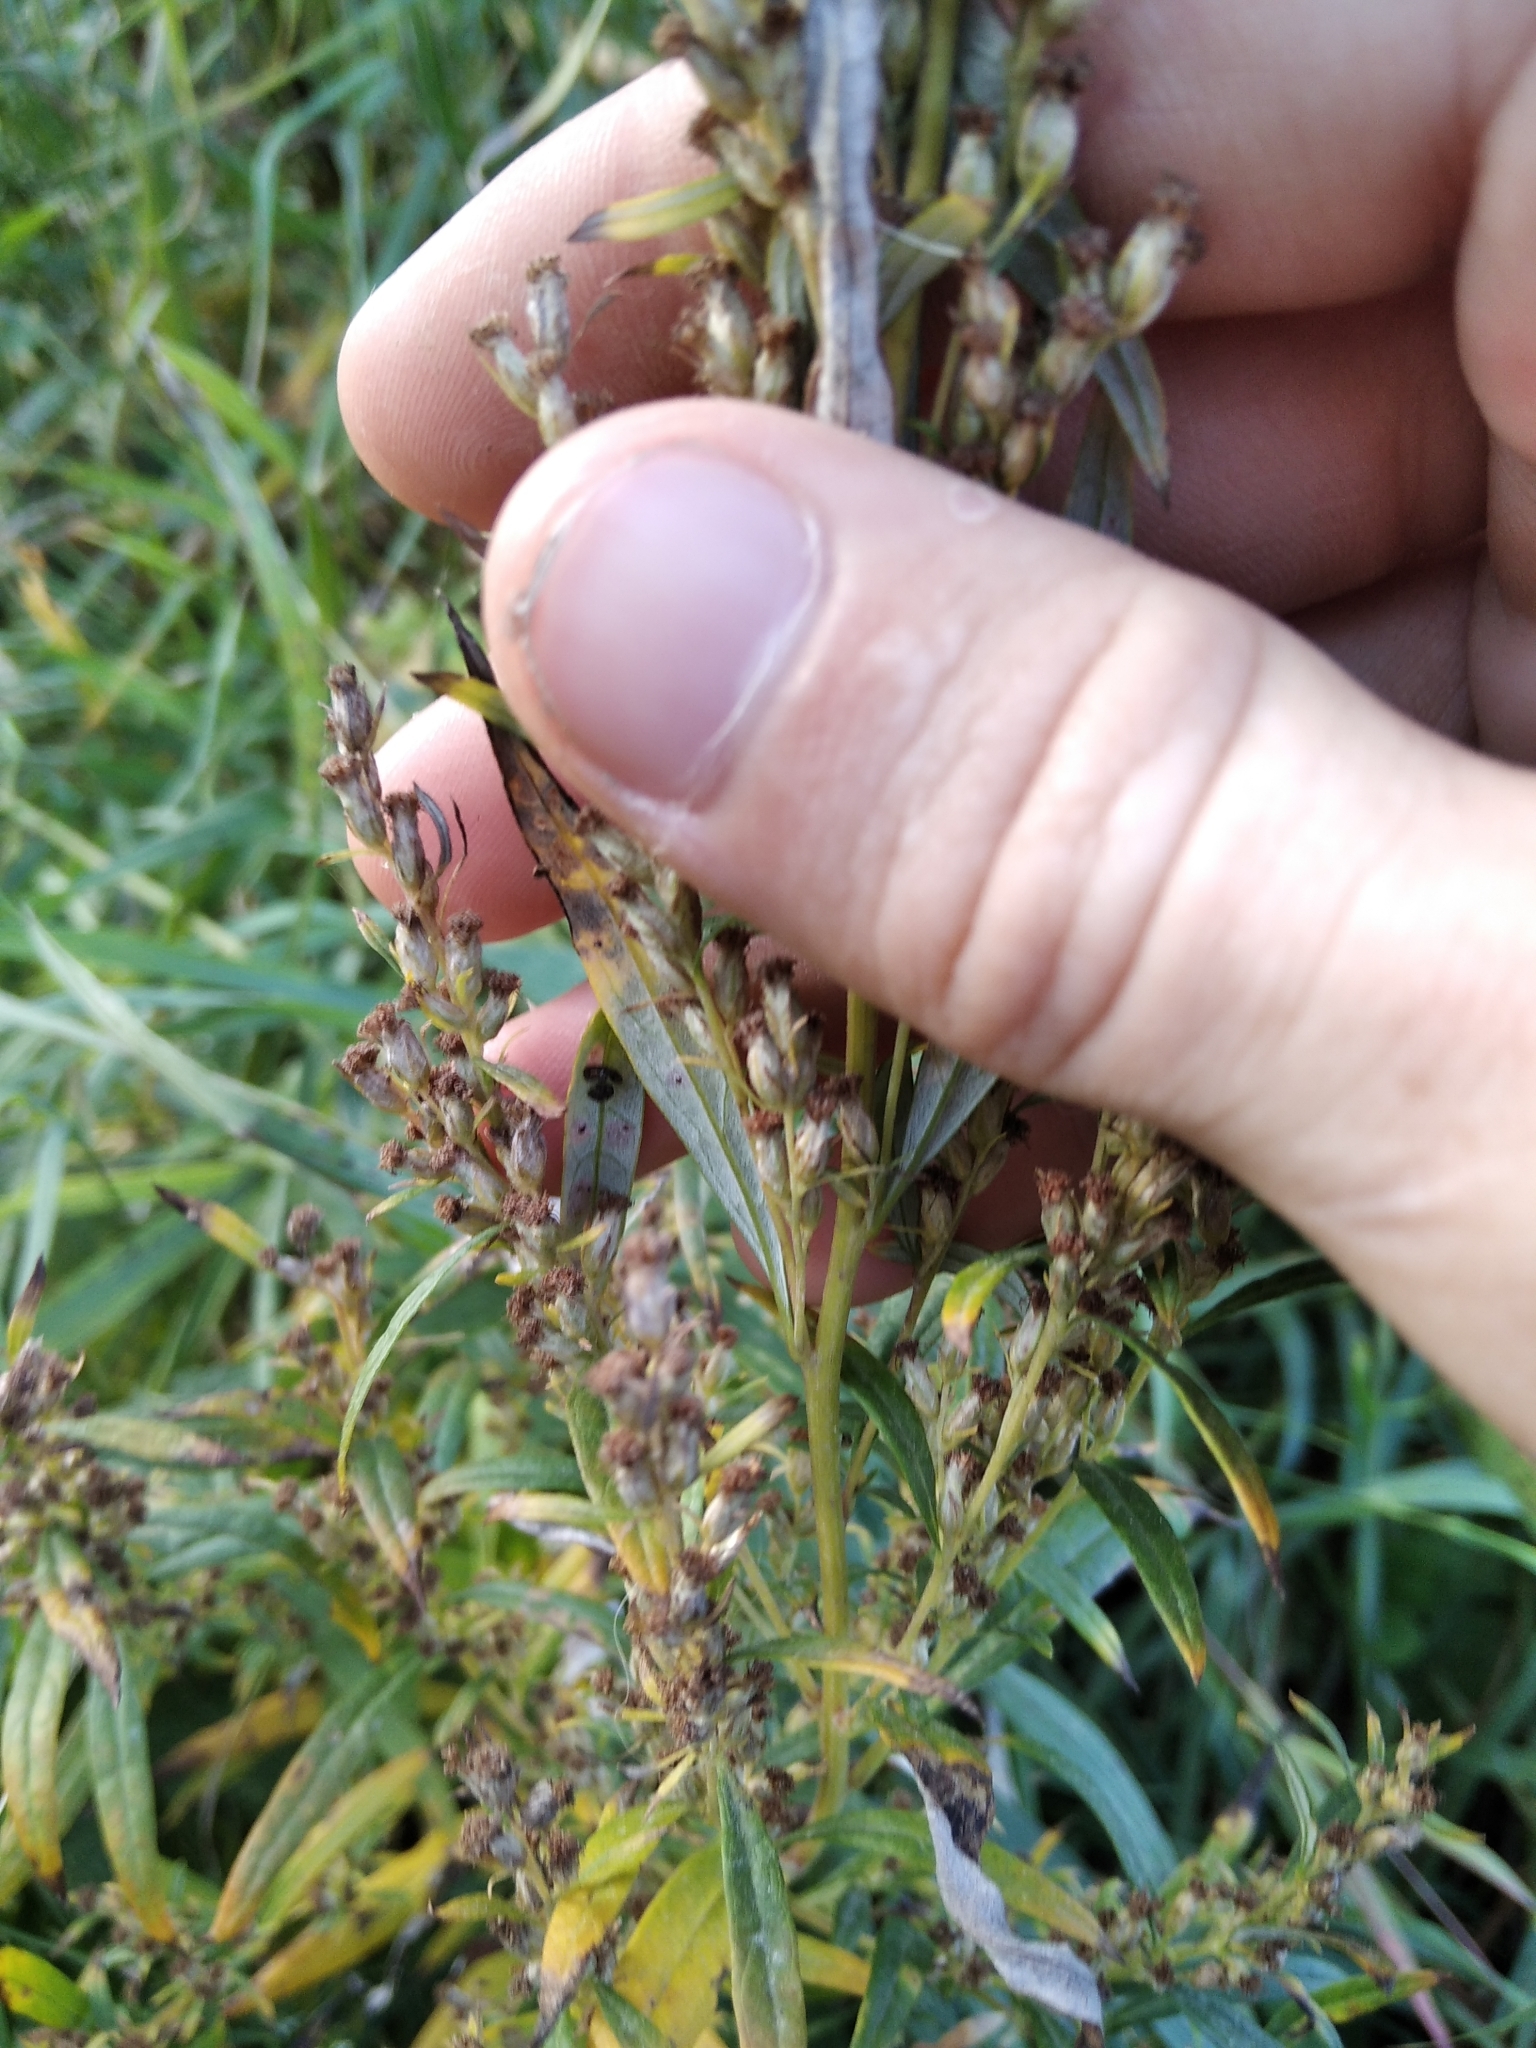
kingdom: Plantae
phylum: Tracheophyta
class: Magnoliopsida
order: Asterales
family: Asteraceae
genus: Artemisia
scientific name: Artemisia vulgaris
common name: Mugwort
